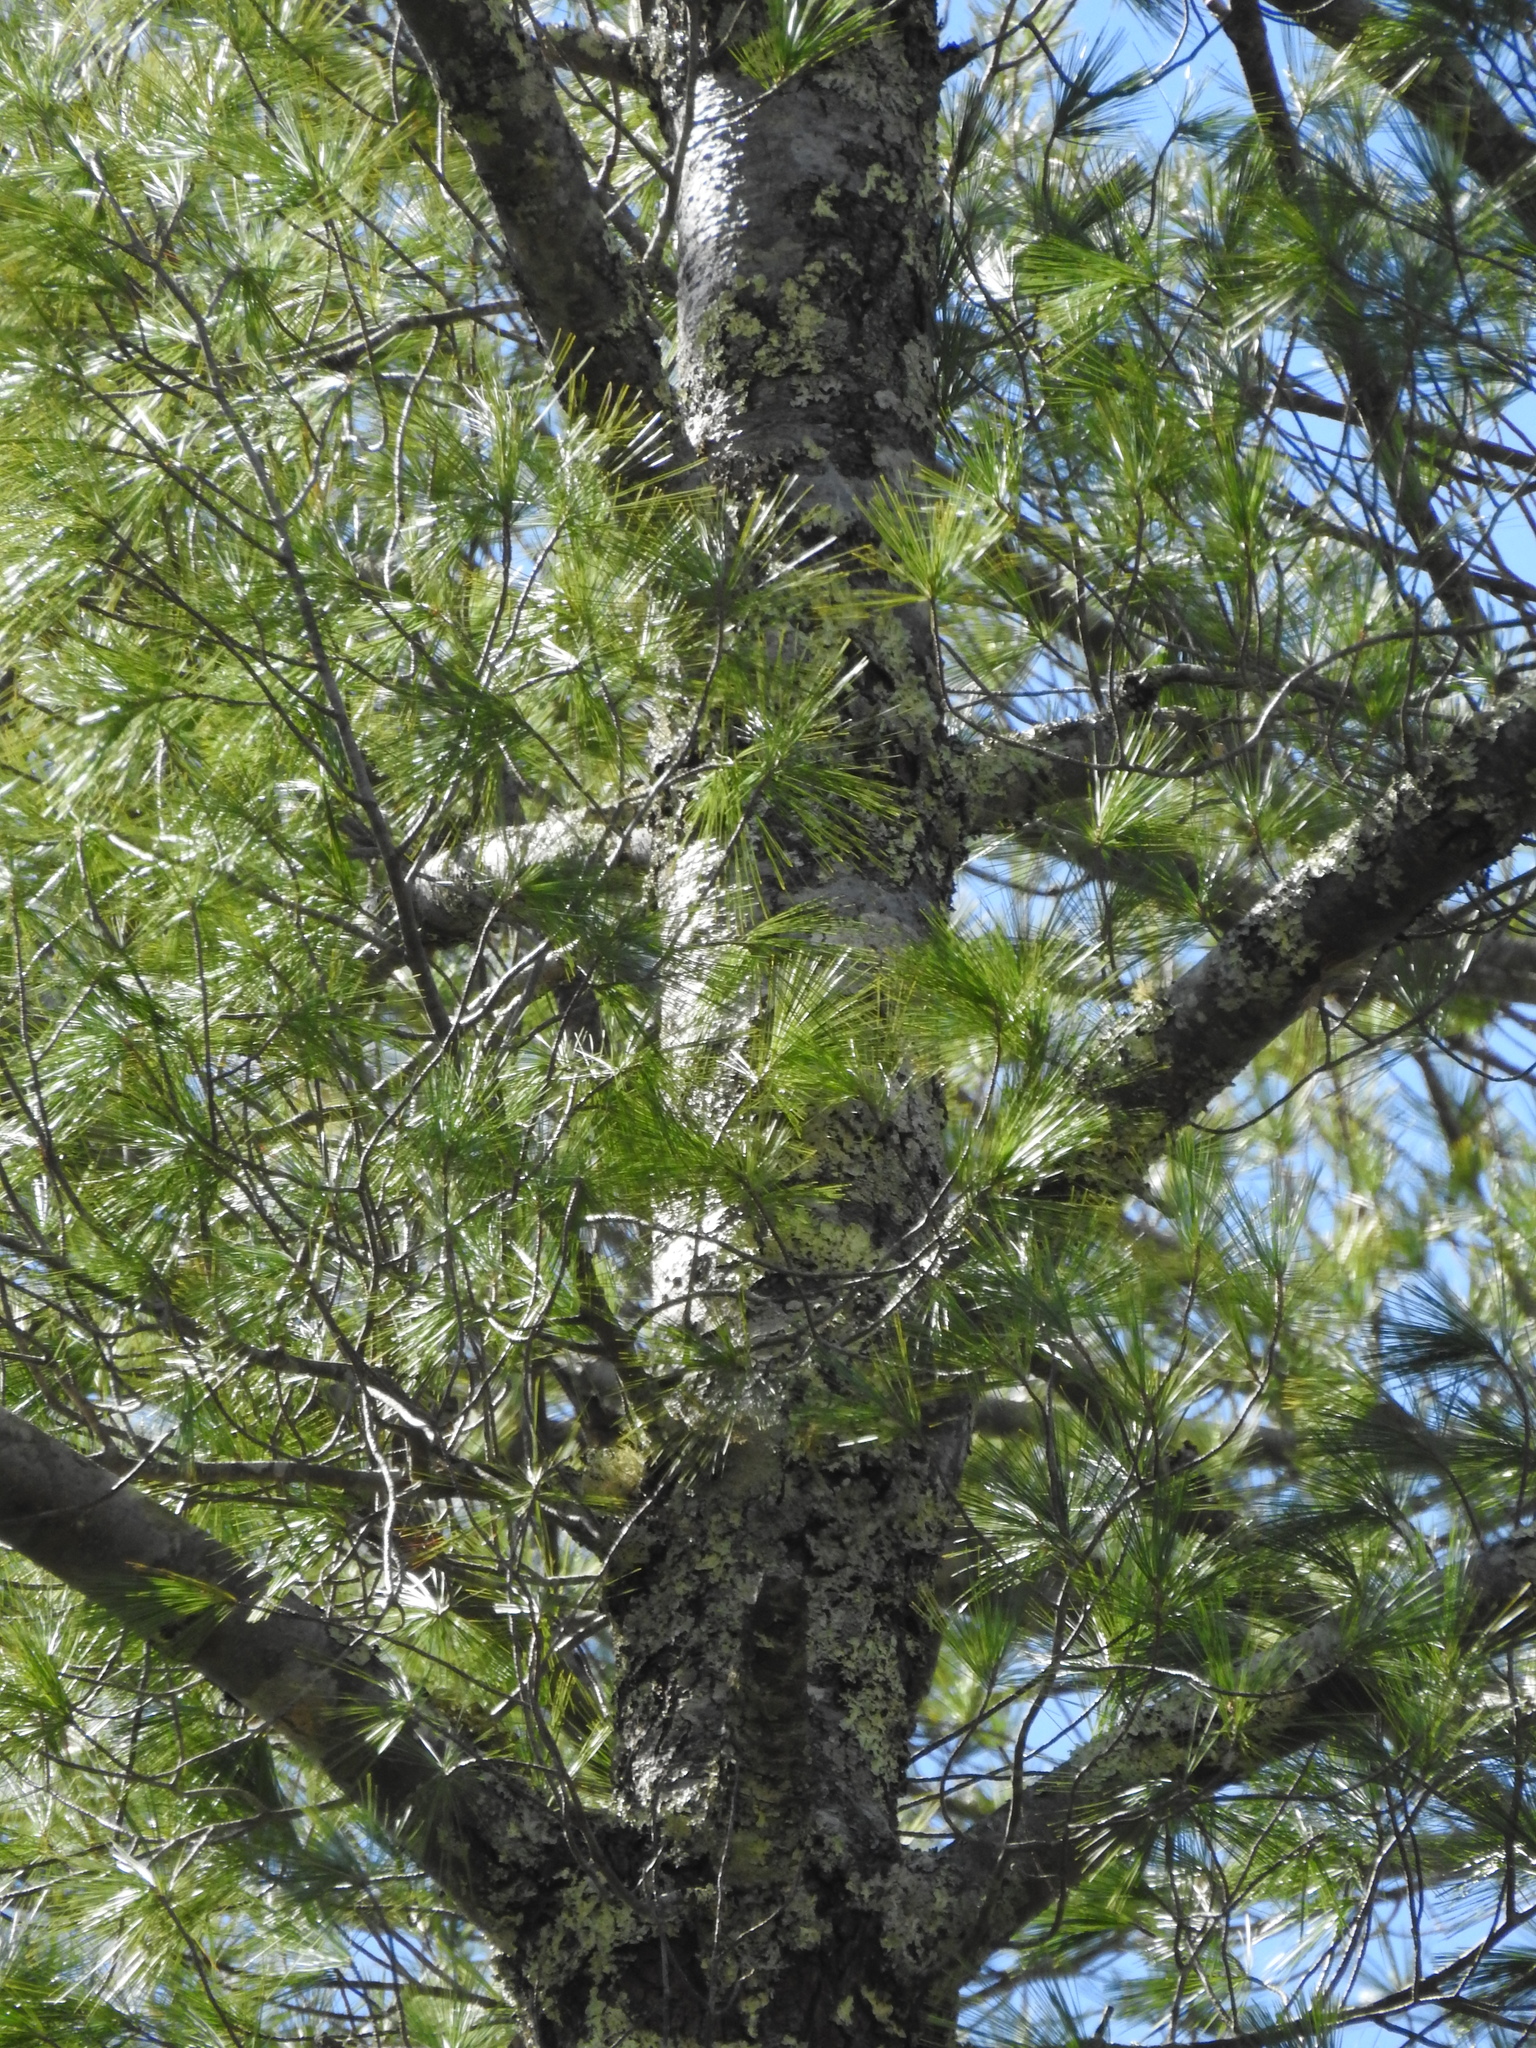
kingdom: Plantae
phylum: Tracheophyta
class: Pinopsida
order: Pinales
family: Pinaceae
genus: Pinus
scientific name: Pinus strobus
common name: Weymouth pine
